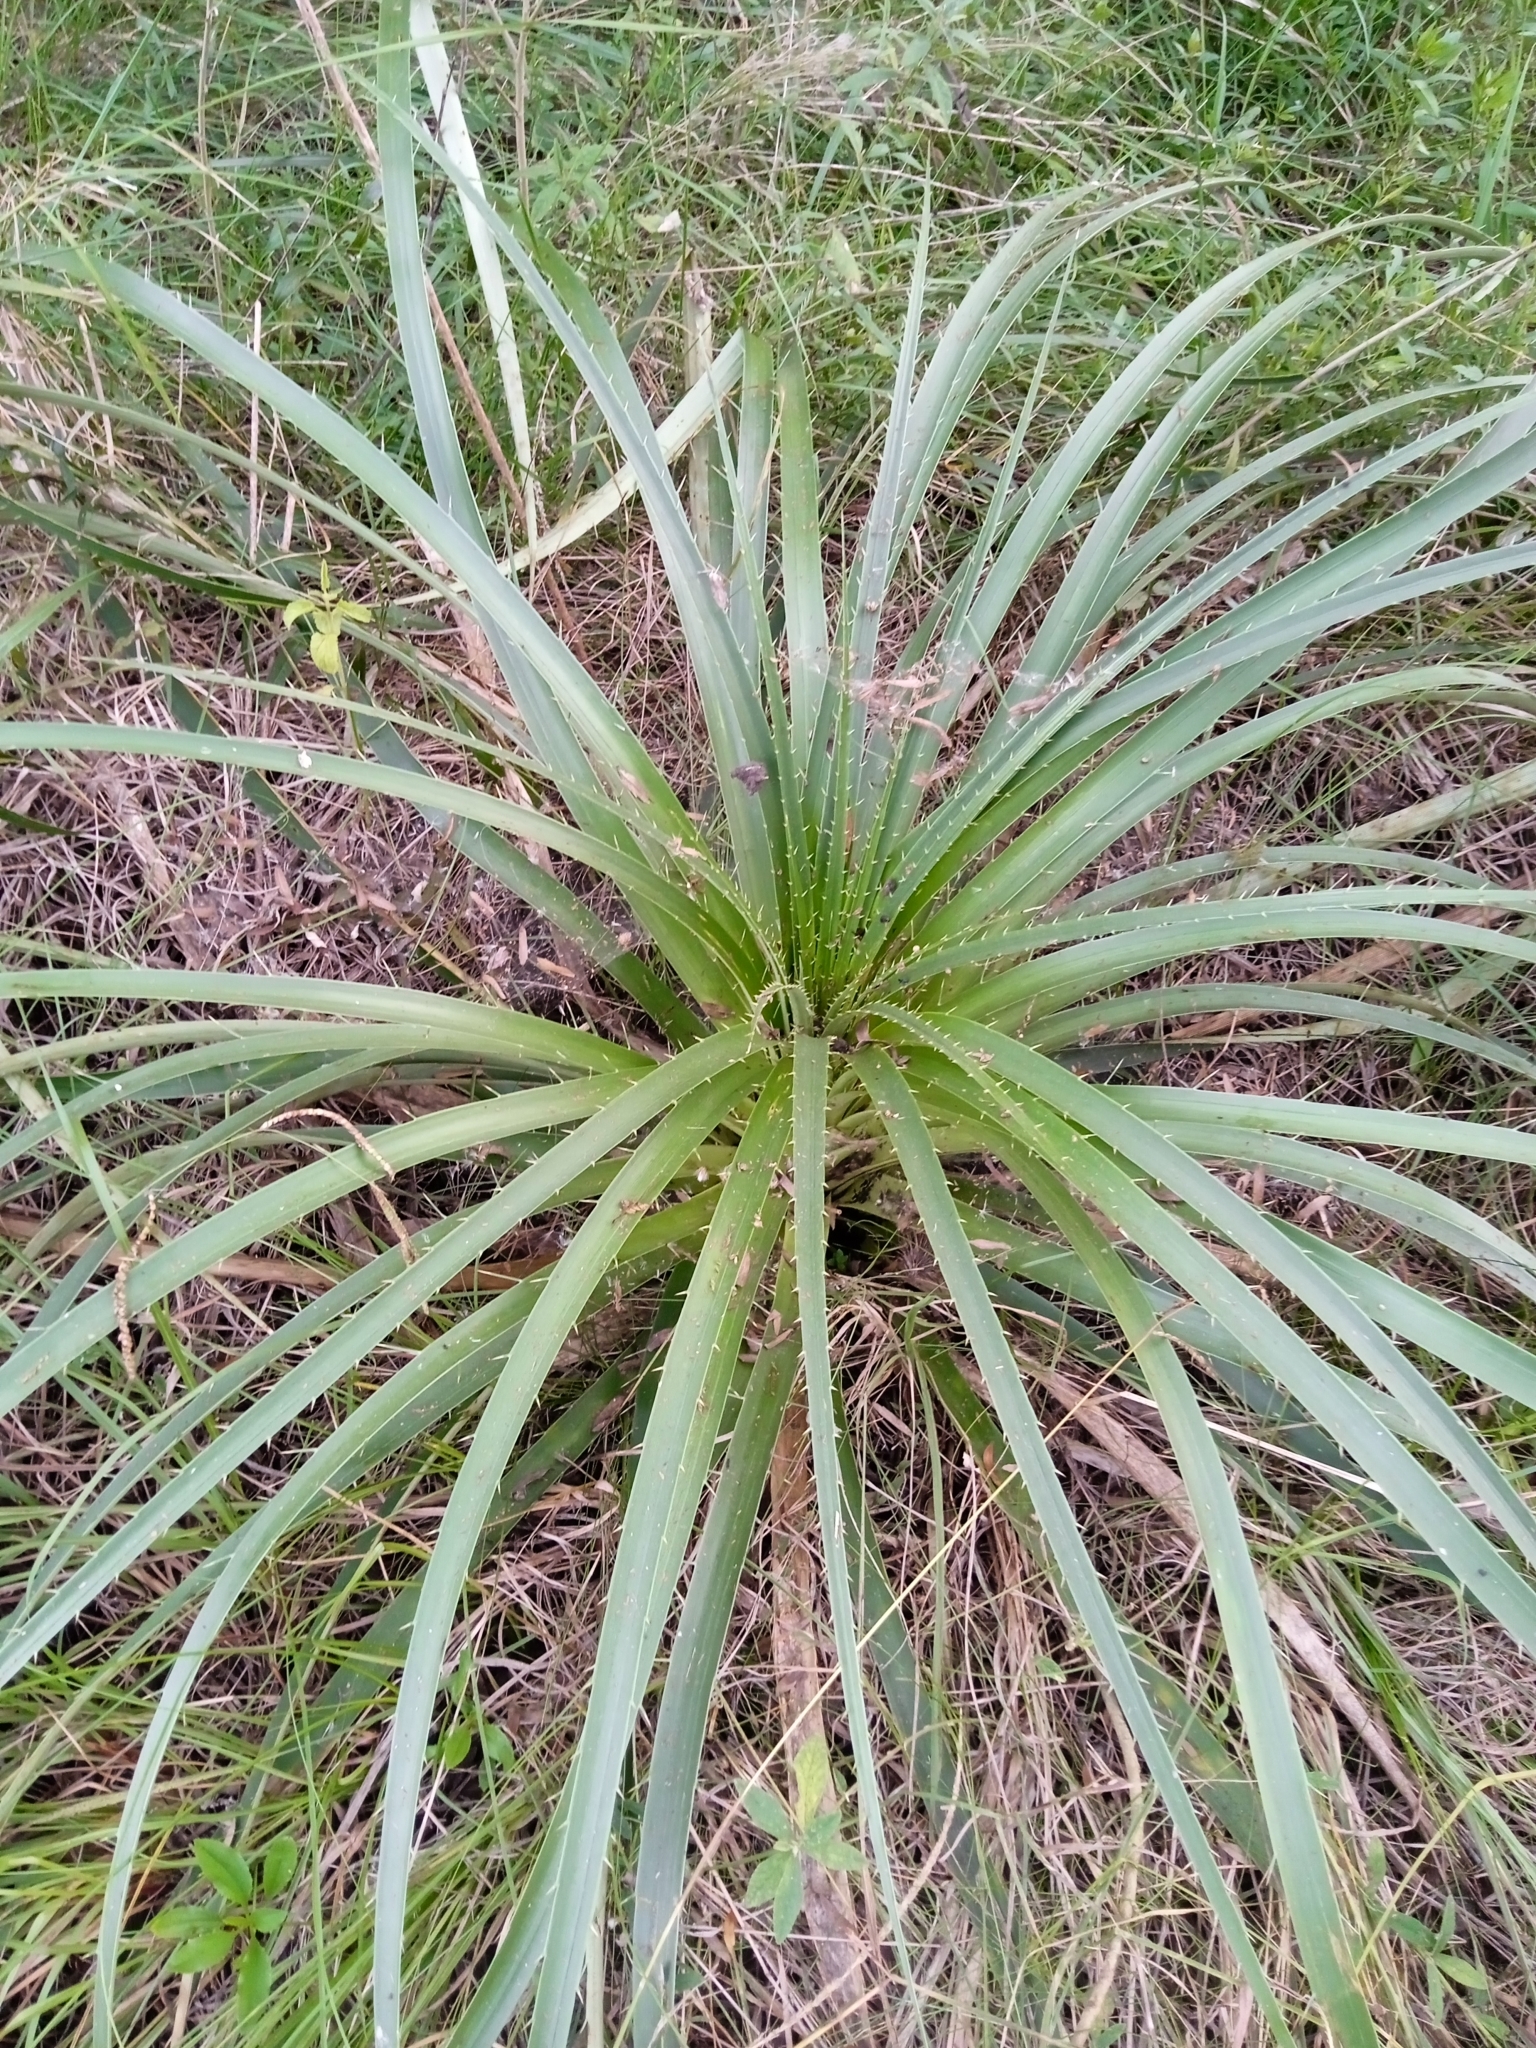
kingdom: Plantae
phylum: Tracheophyta
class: Magnoliopsida
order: Apiales
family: Apiaceae
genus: Eryngium
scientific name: Eryngium horridum
